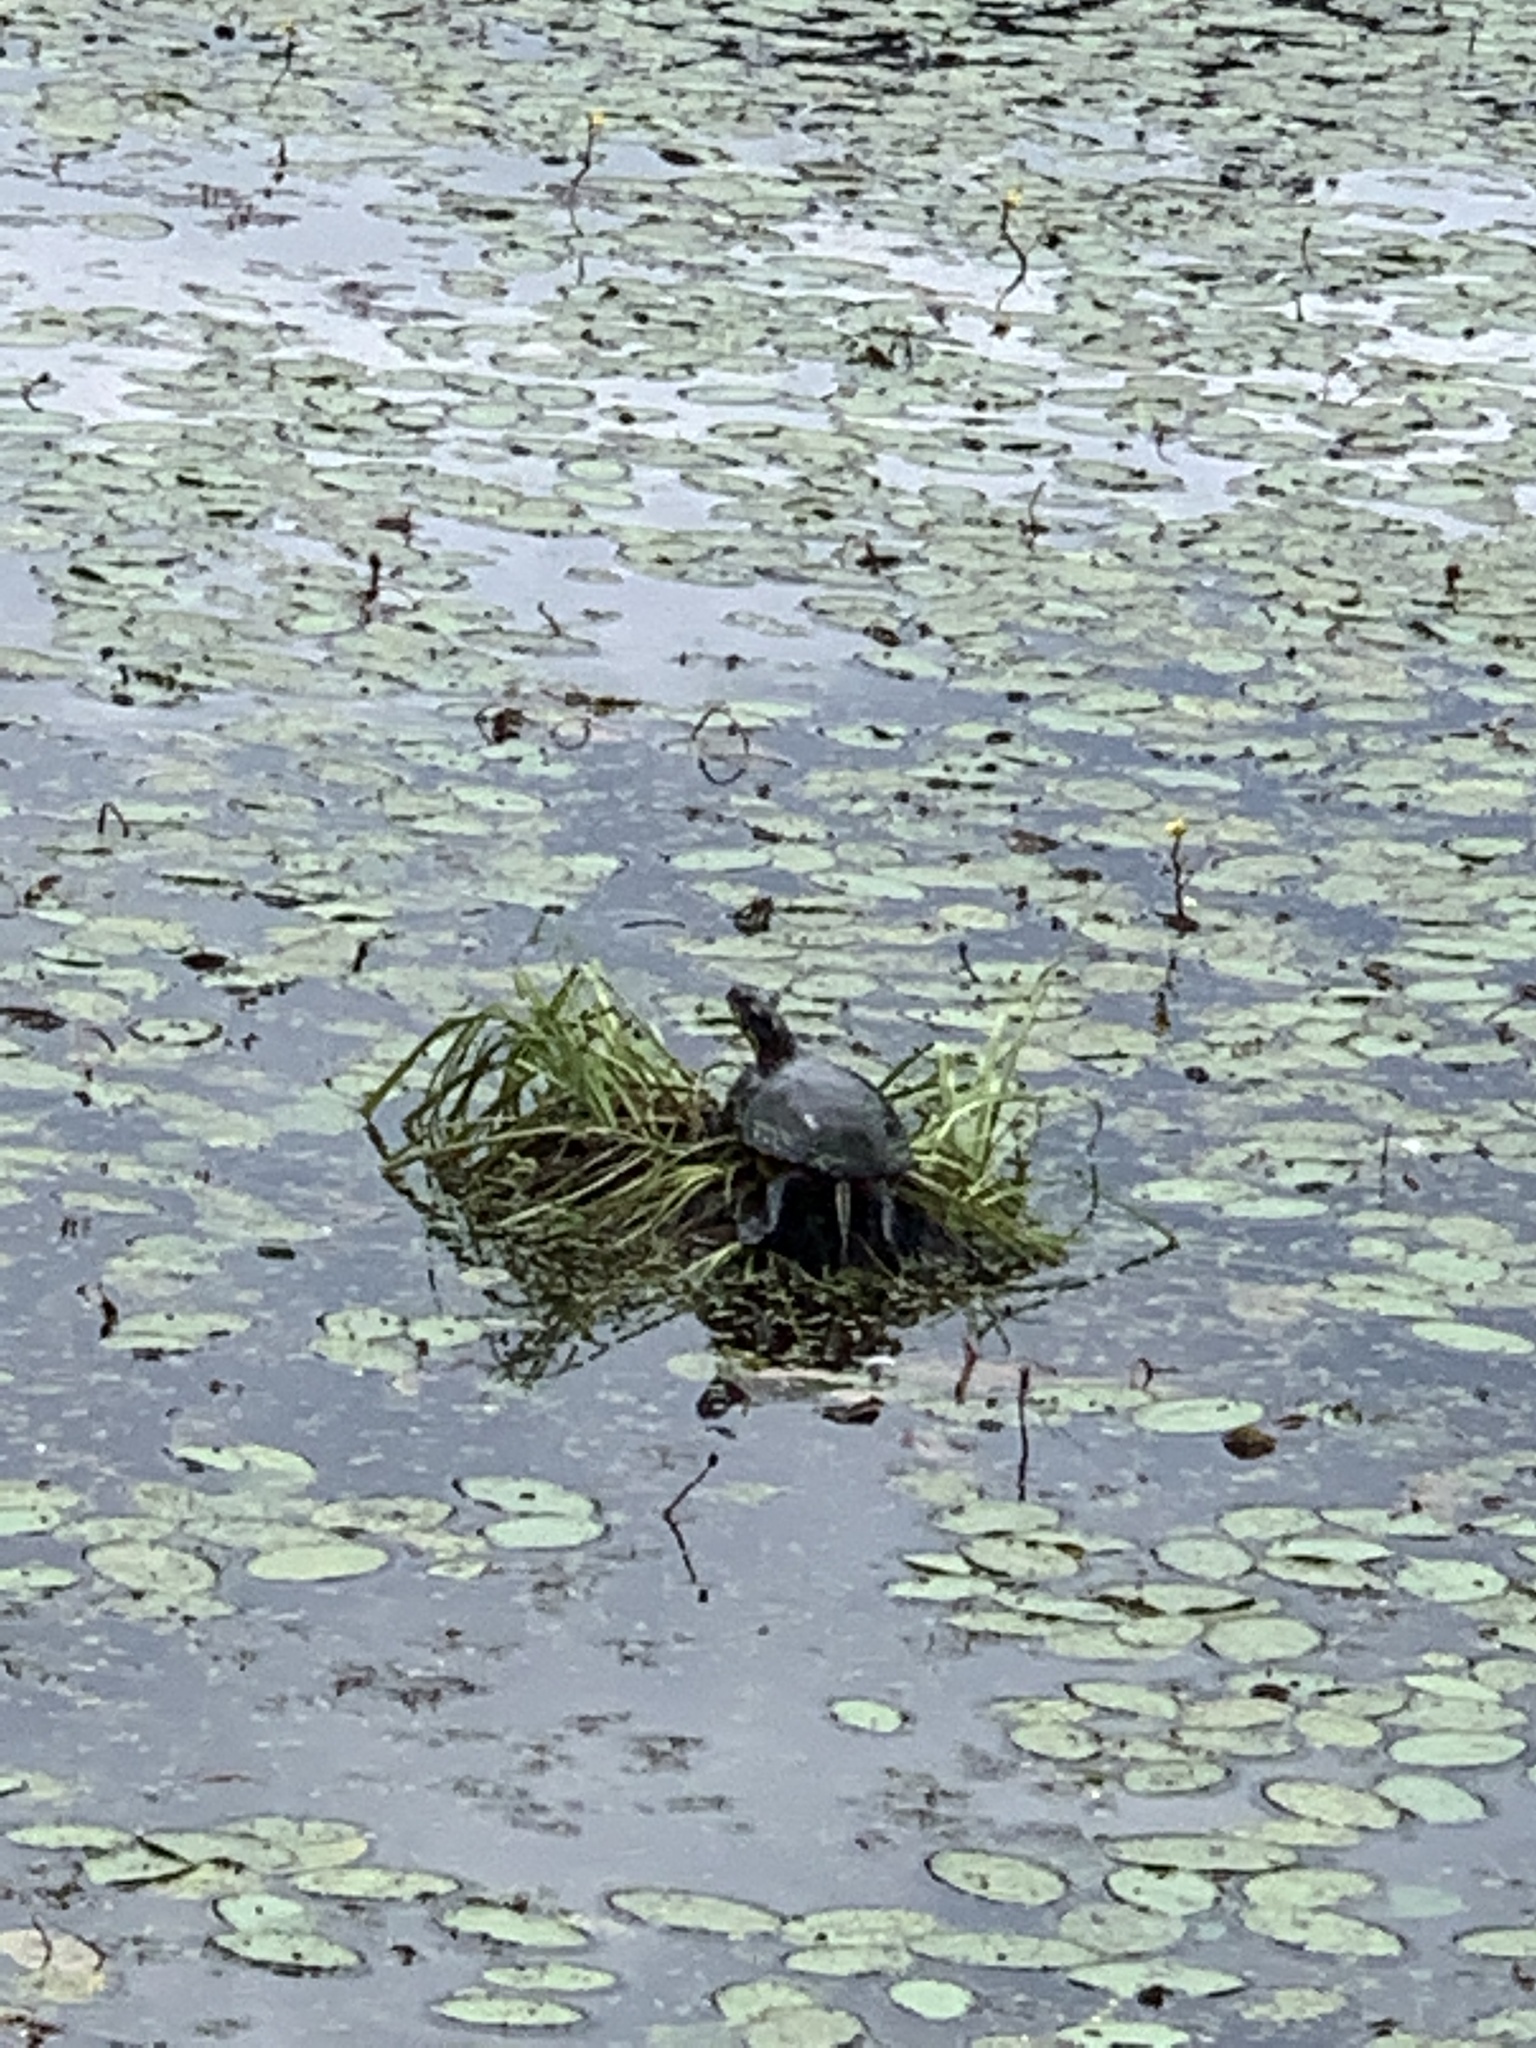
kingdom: Animalia
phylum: Chordata
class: Testudines
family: Emydidae
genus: Chrysemys
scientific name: Chrysemys picta
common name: Painted turtle
